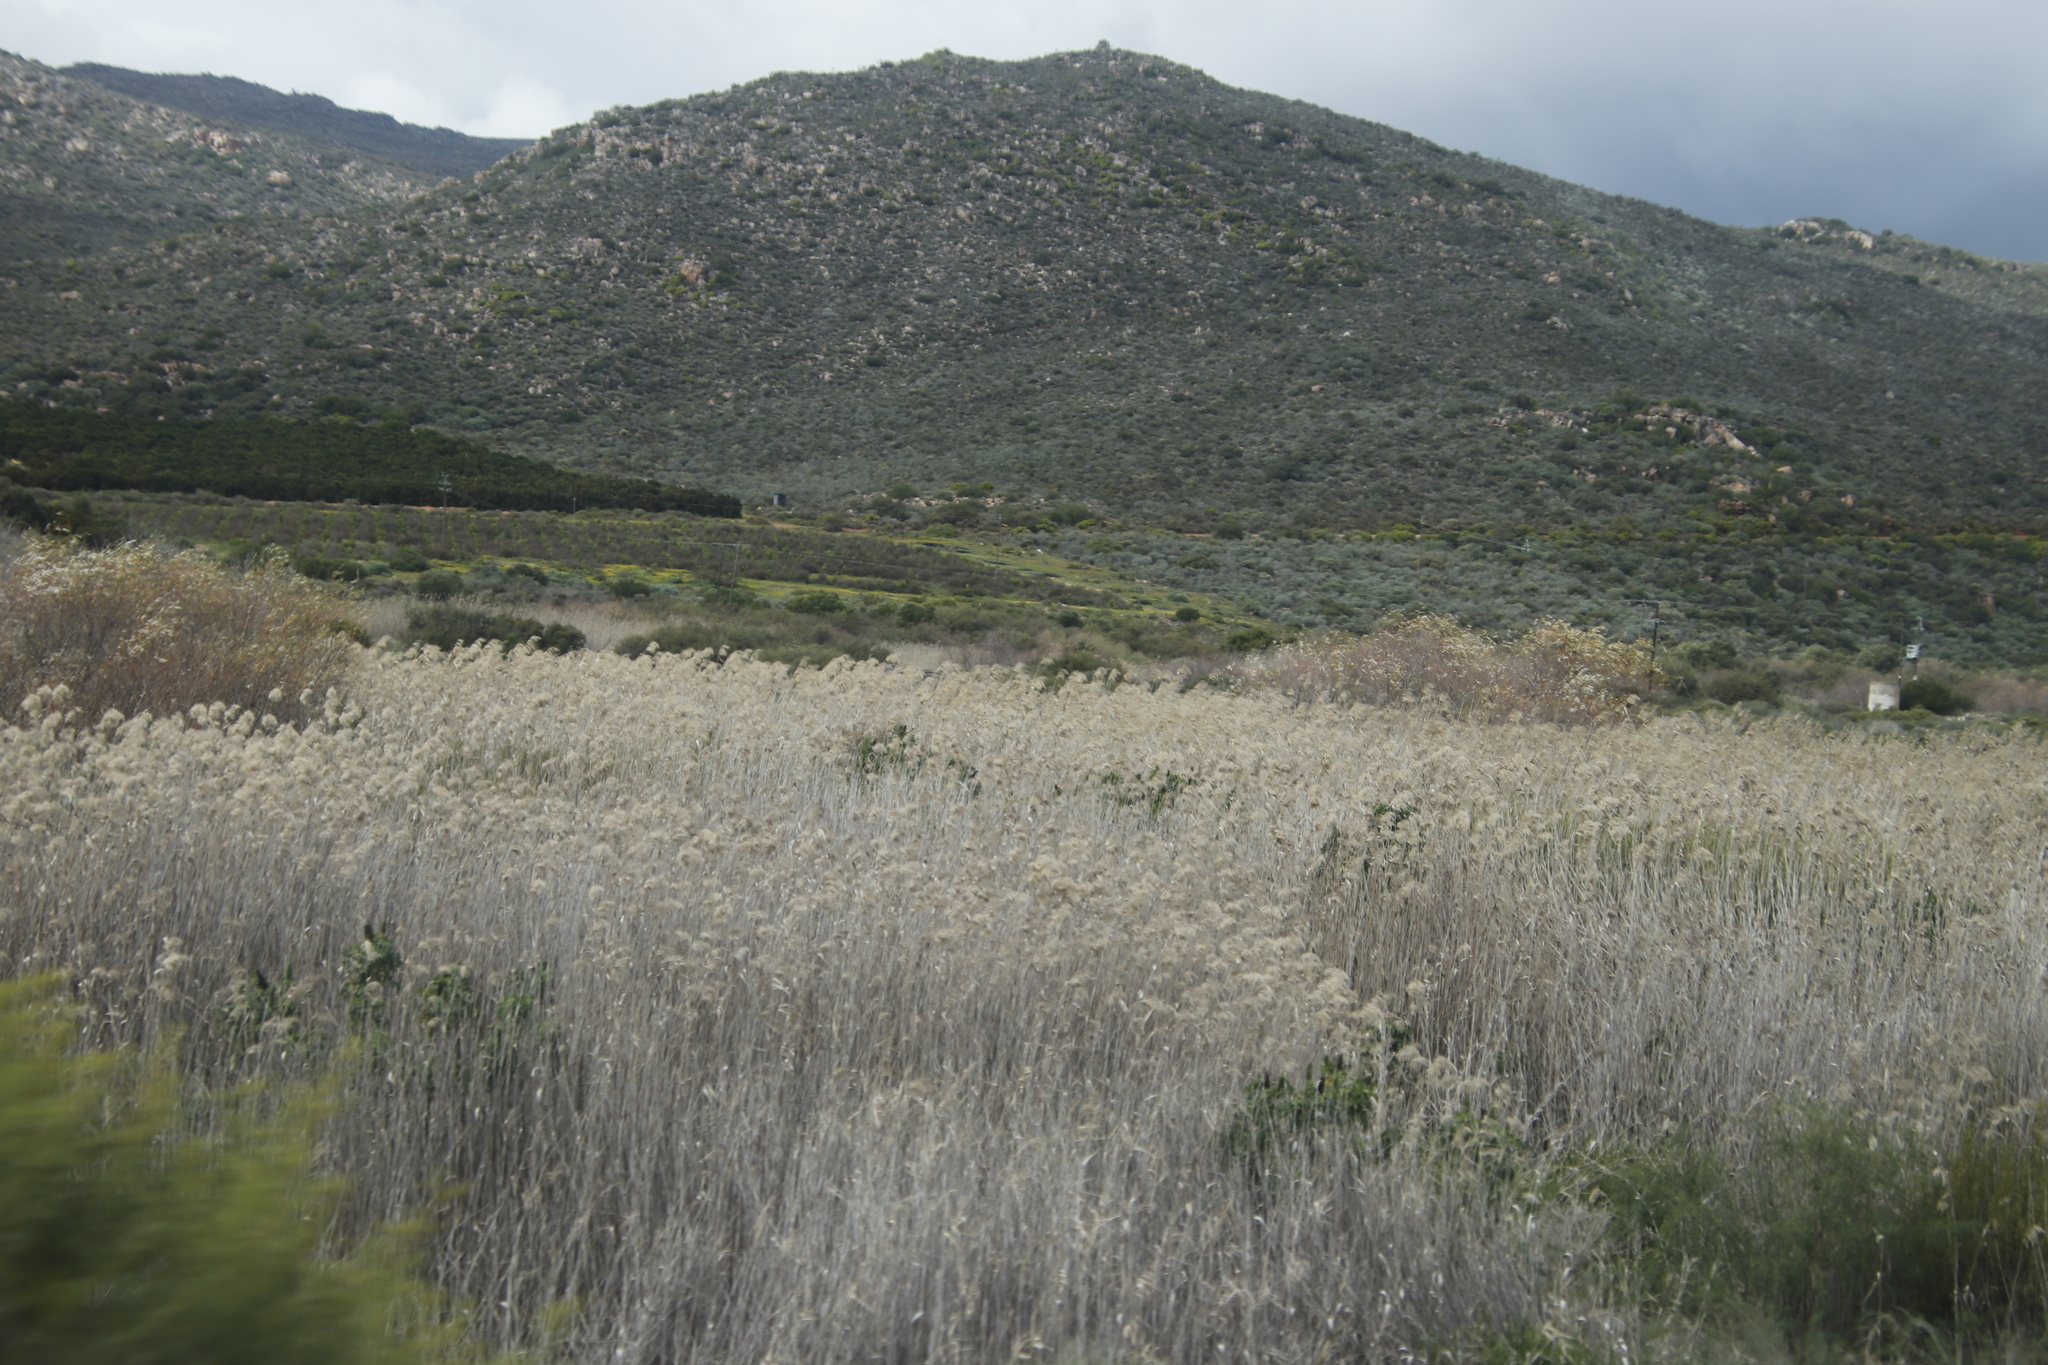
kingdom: Plantae
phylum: Tracheophyta
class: Liliopsida
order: Poales
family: Poaceae
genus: Phragmites
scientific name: Phragmites australis
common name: Common reed
